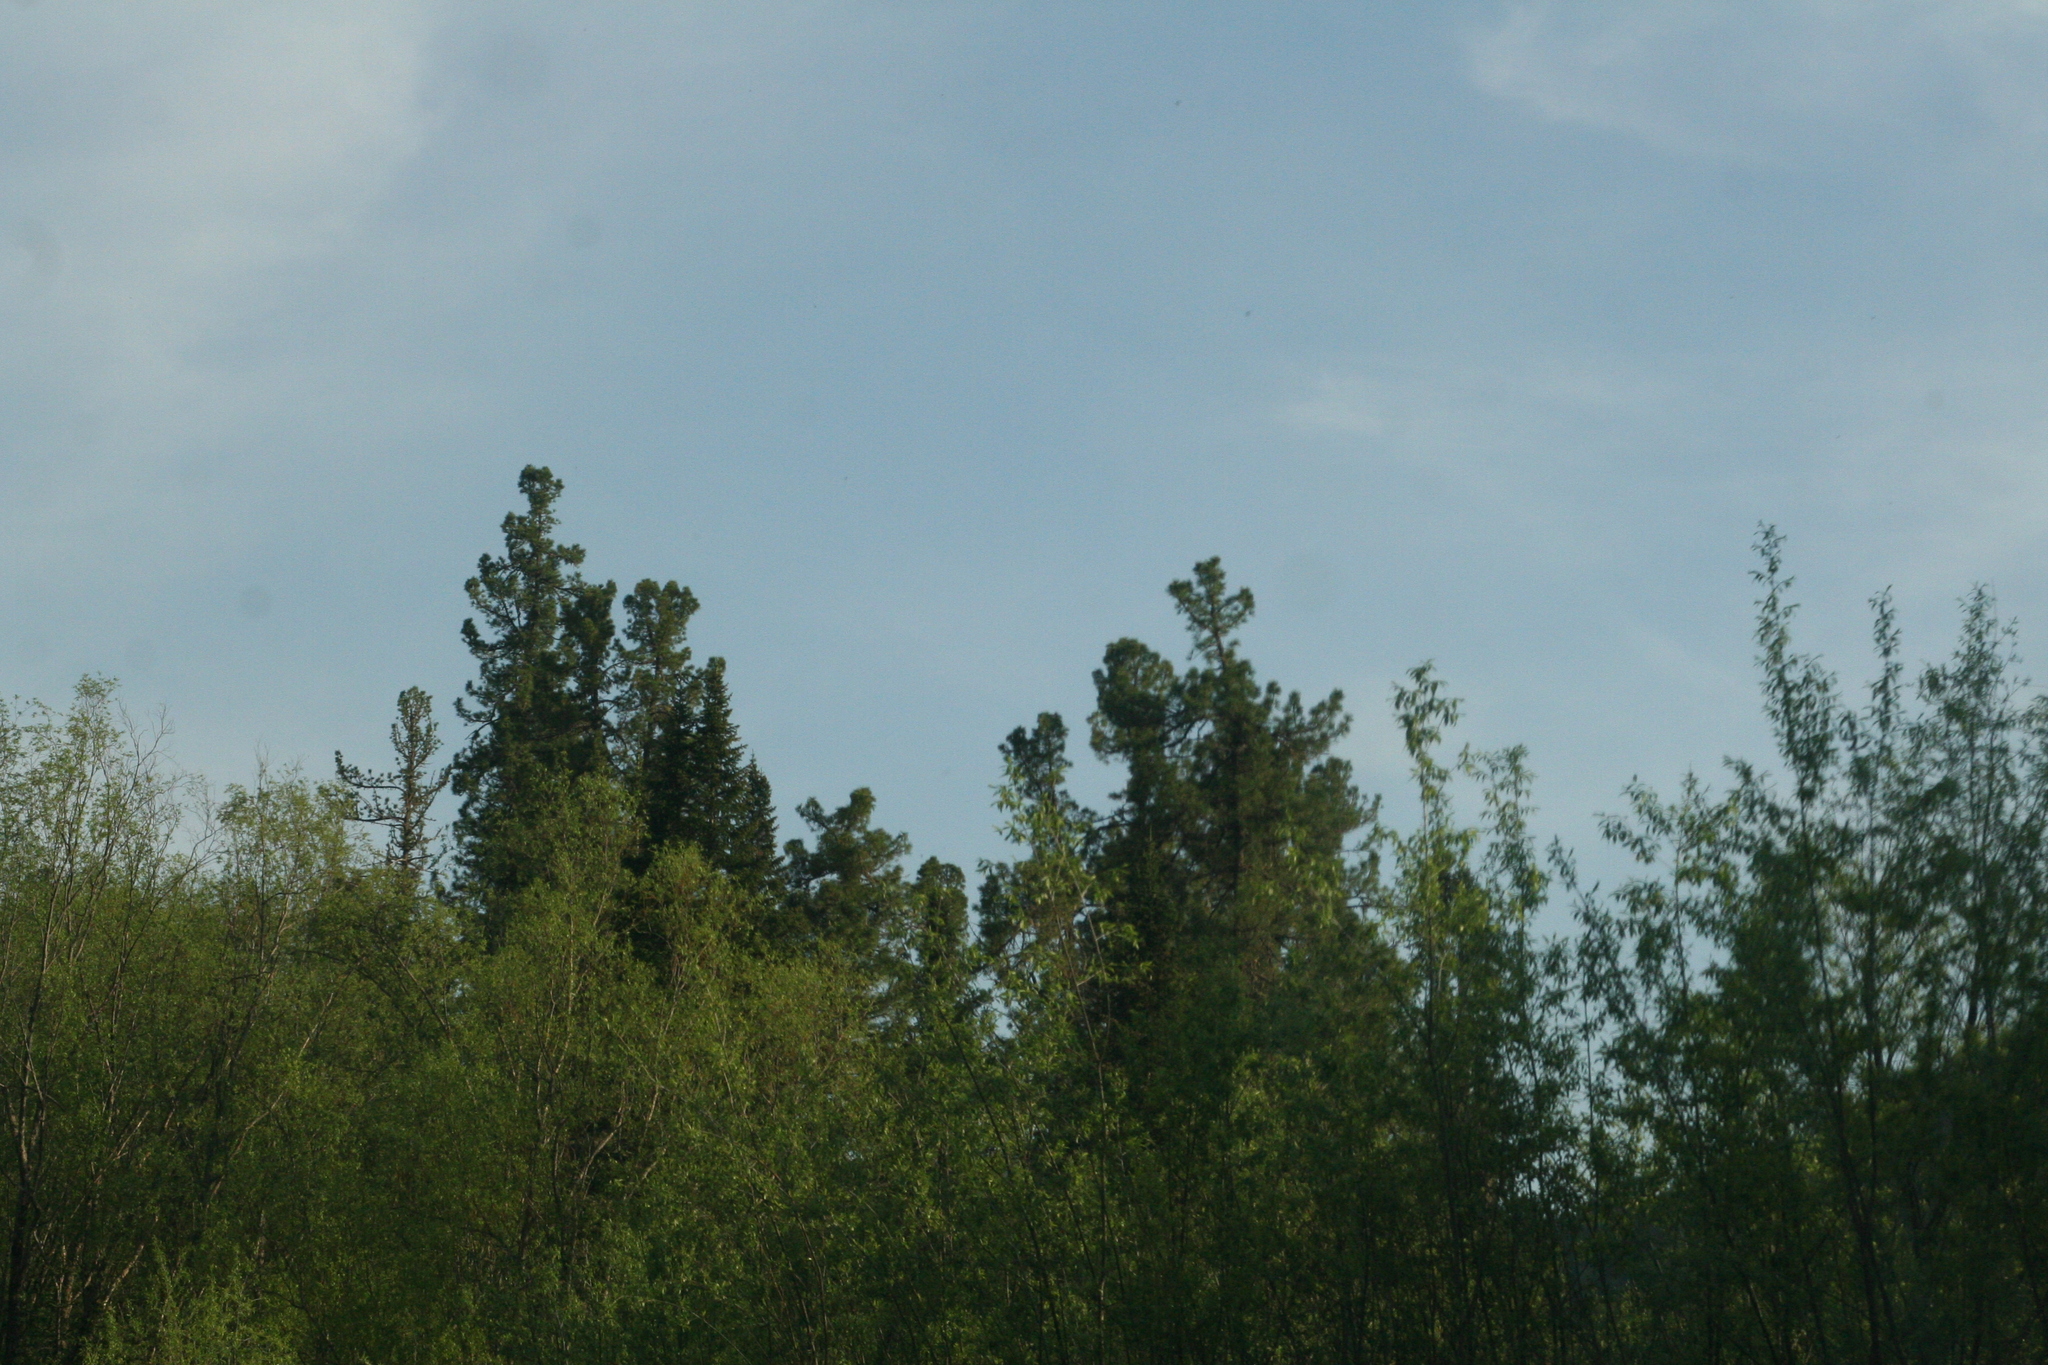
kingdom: Plantae
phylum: Tracheophyta
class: Pinopsida
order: Pinales
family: Pinaceae
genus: Pinus
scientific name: Pinus sibirica
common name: Siberian pine
